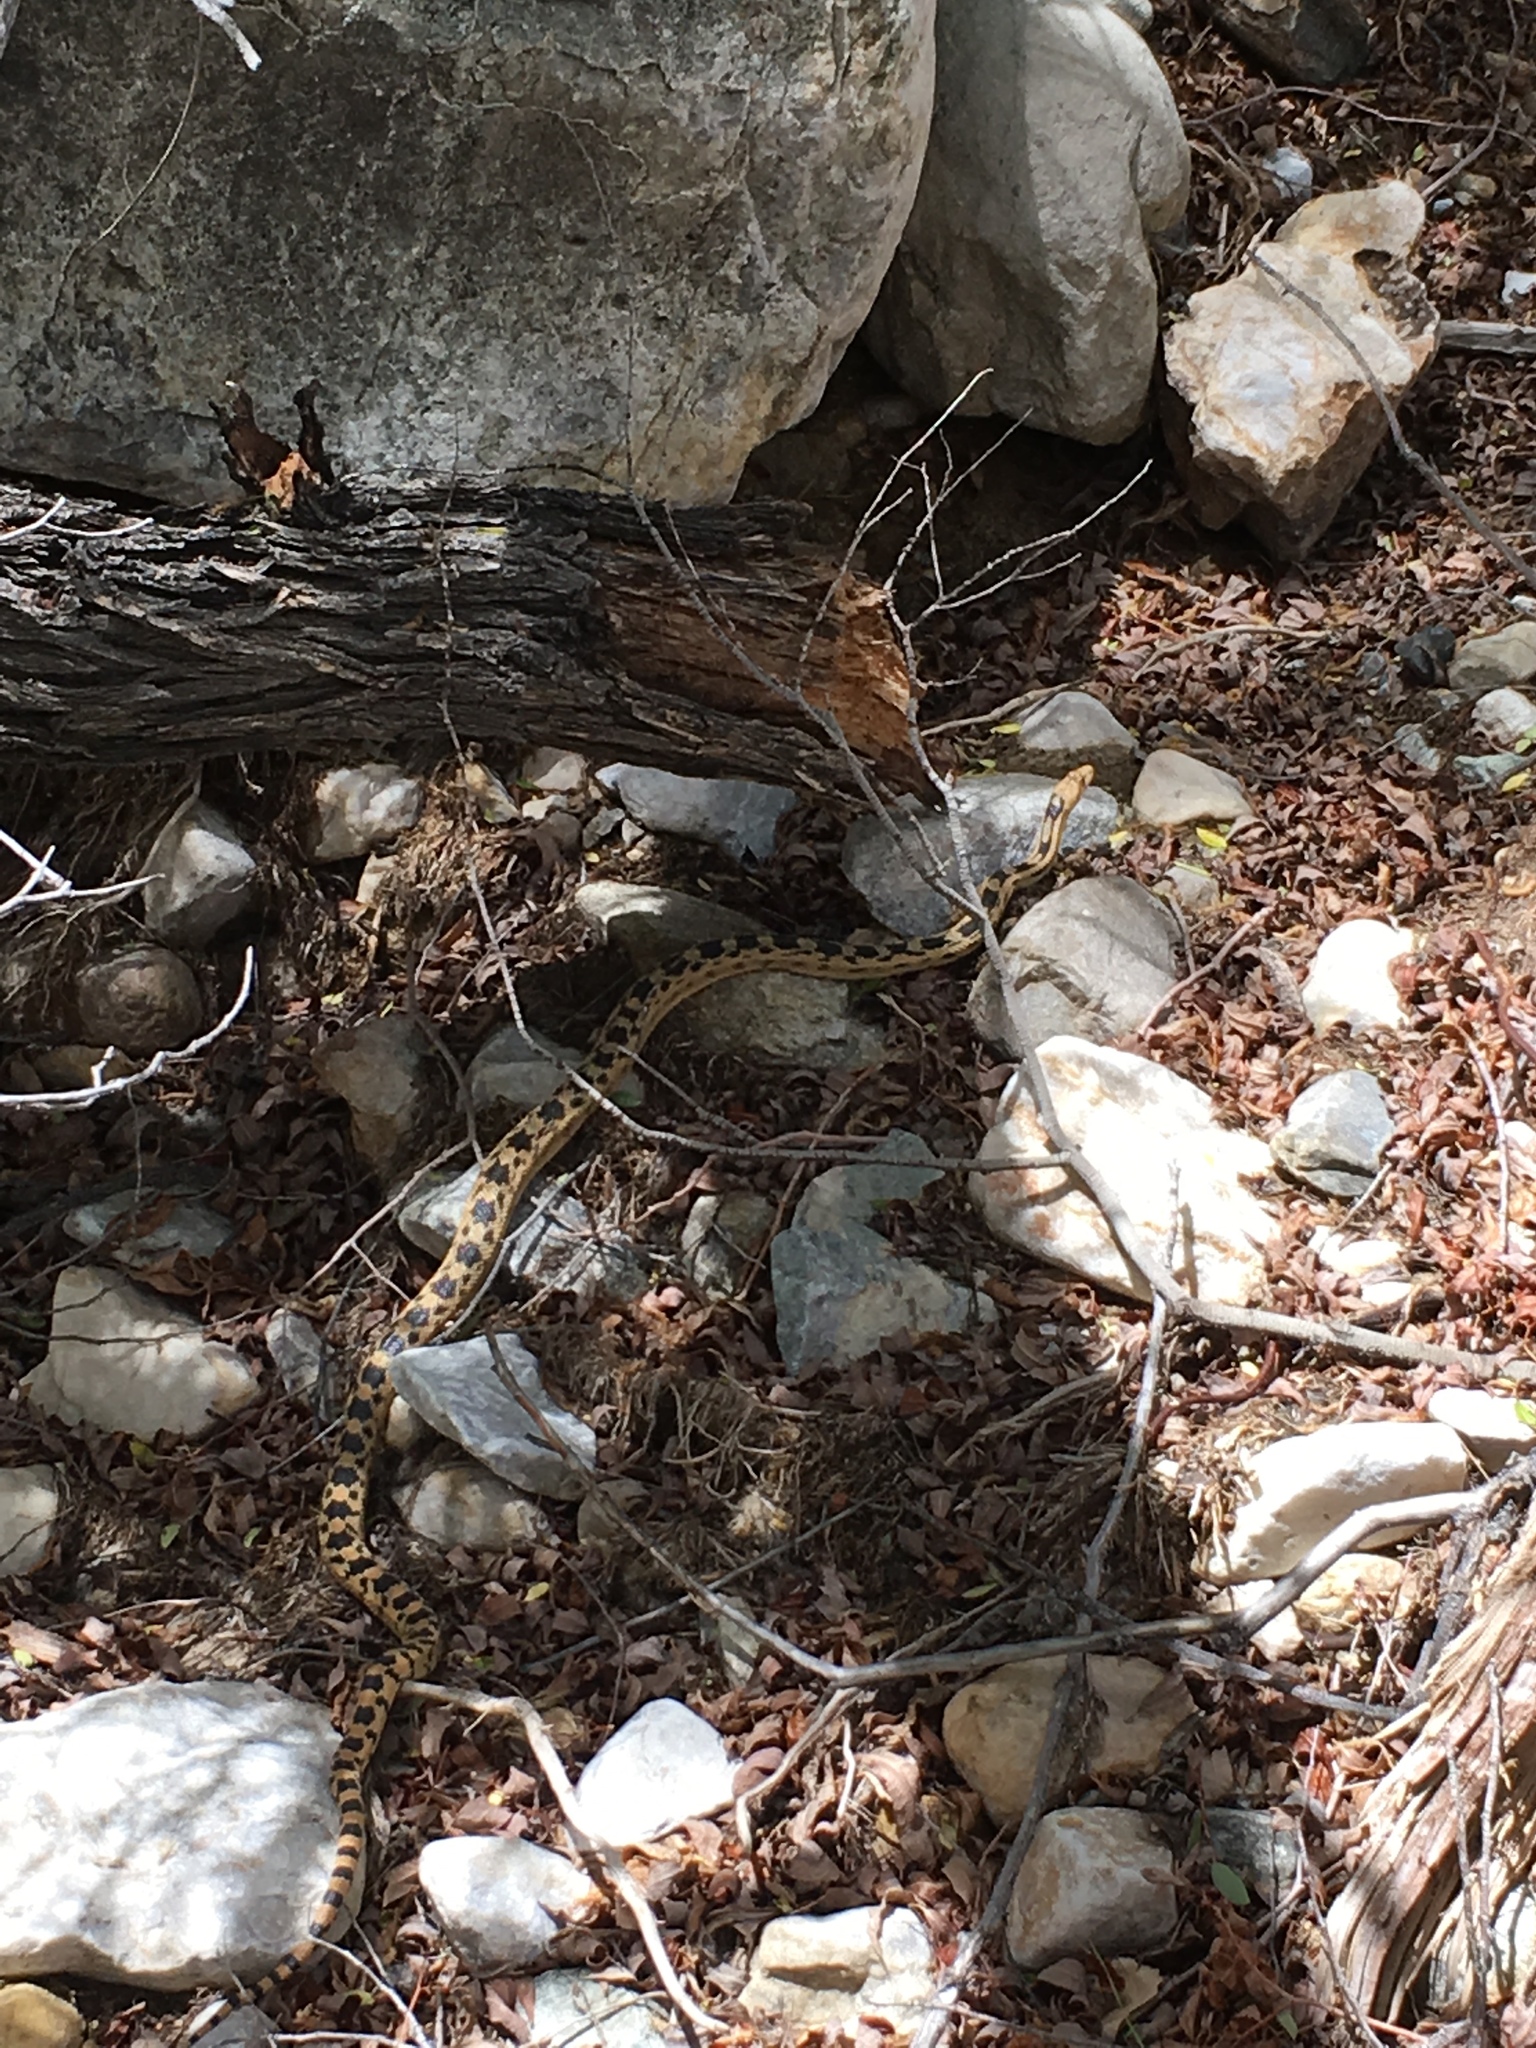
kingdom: Animalia
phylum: Chordata
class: Squamata
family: Colubridae
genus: Pituophis
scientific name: Pituophis catenifer
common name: Gopher snake
